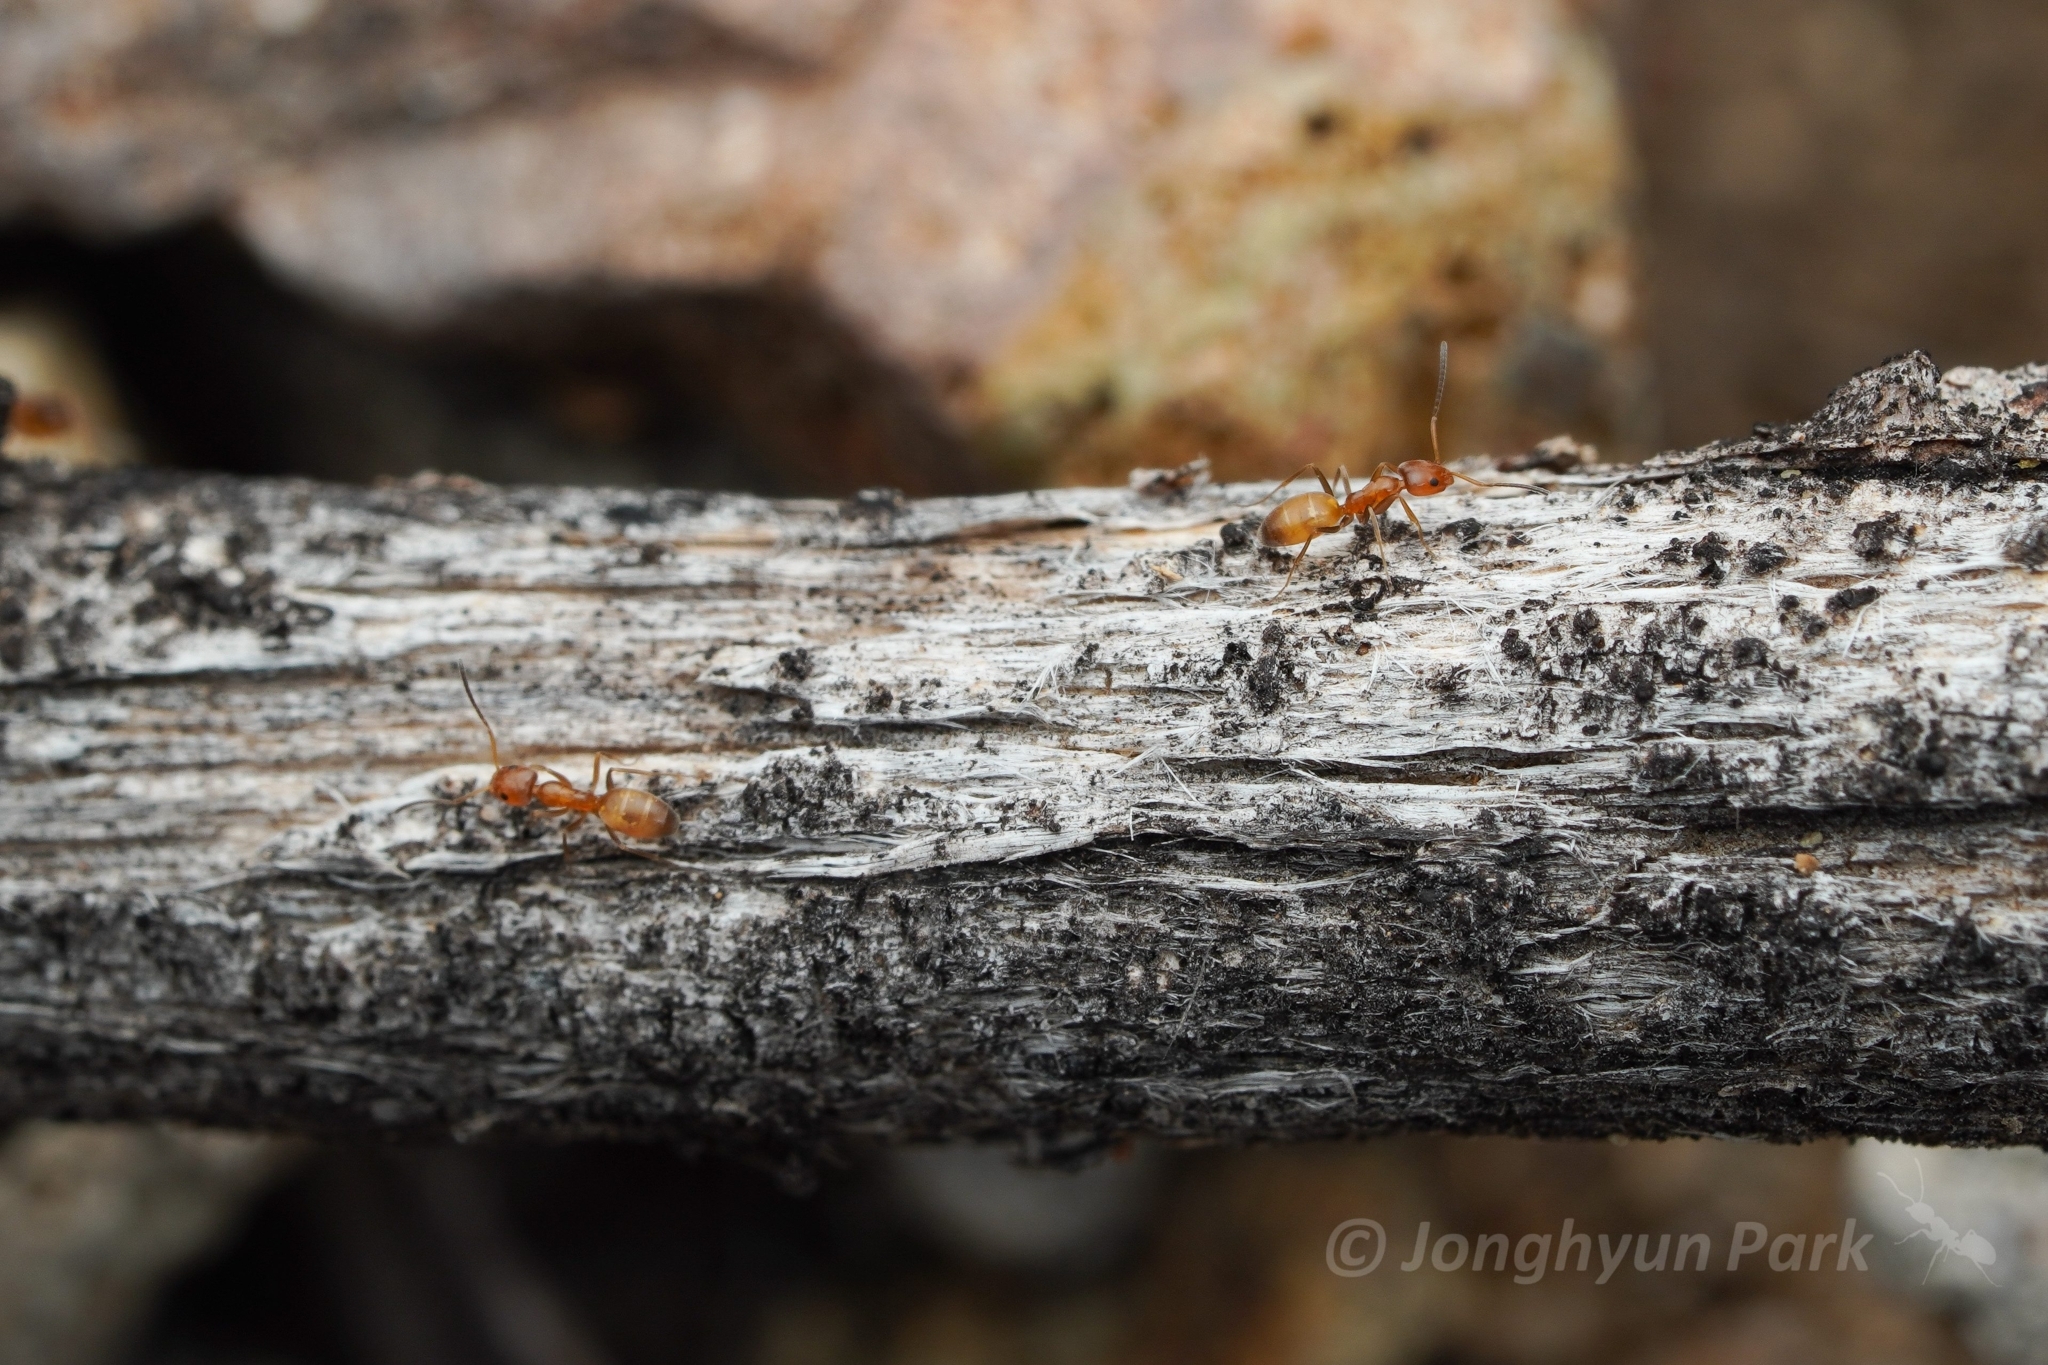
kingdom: Animalia
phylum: Arthropoda
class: Insecta
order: Hymenoptera
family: Formicidae
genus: Forelius
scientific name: Forelius pruinosus
